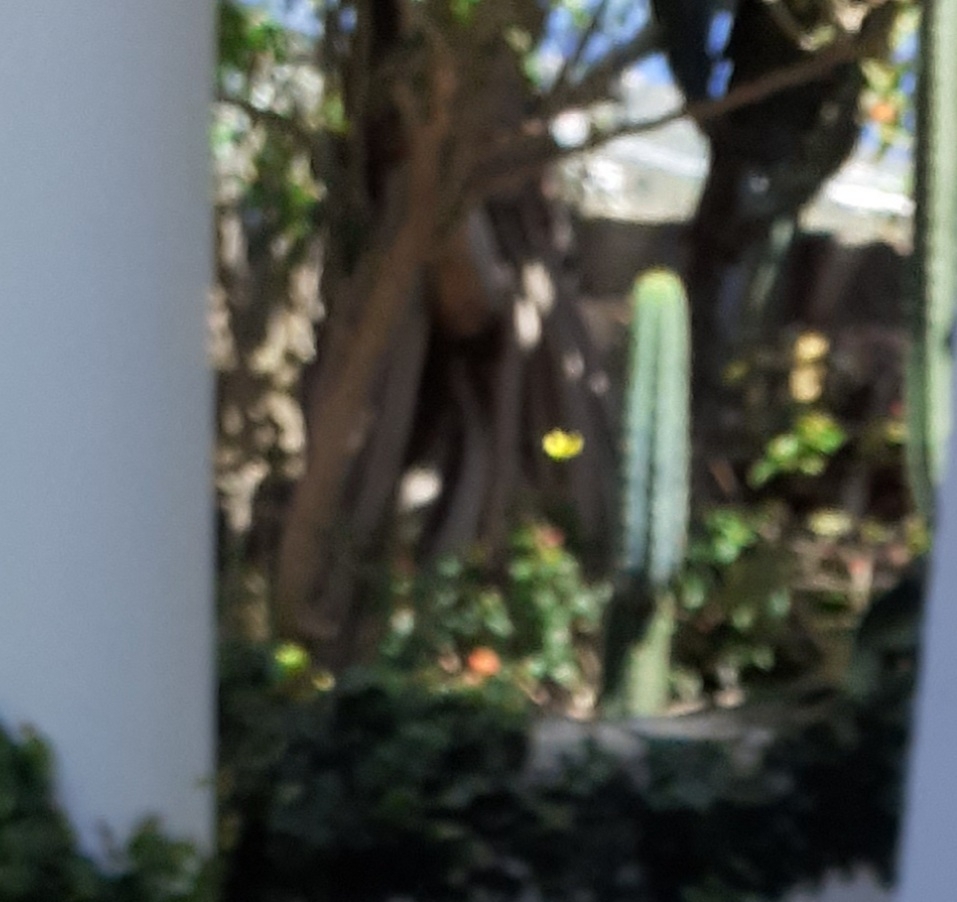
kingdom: Animalia
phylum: Arthropoda
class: Insecta
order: Lepidoptera
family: Pieridae
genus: Gonepteryx
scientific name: Gonepteryx cleobule
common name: Canary brimstone
